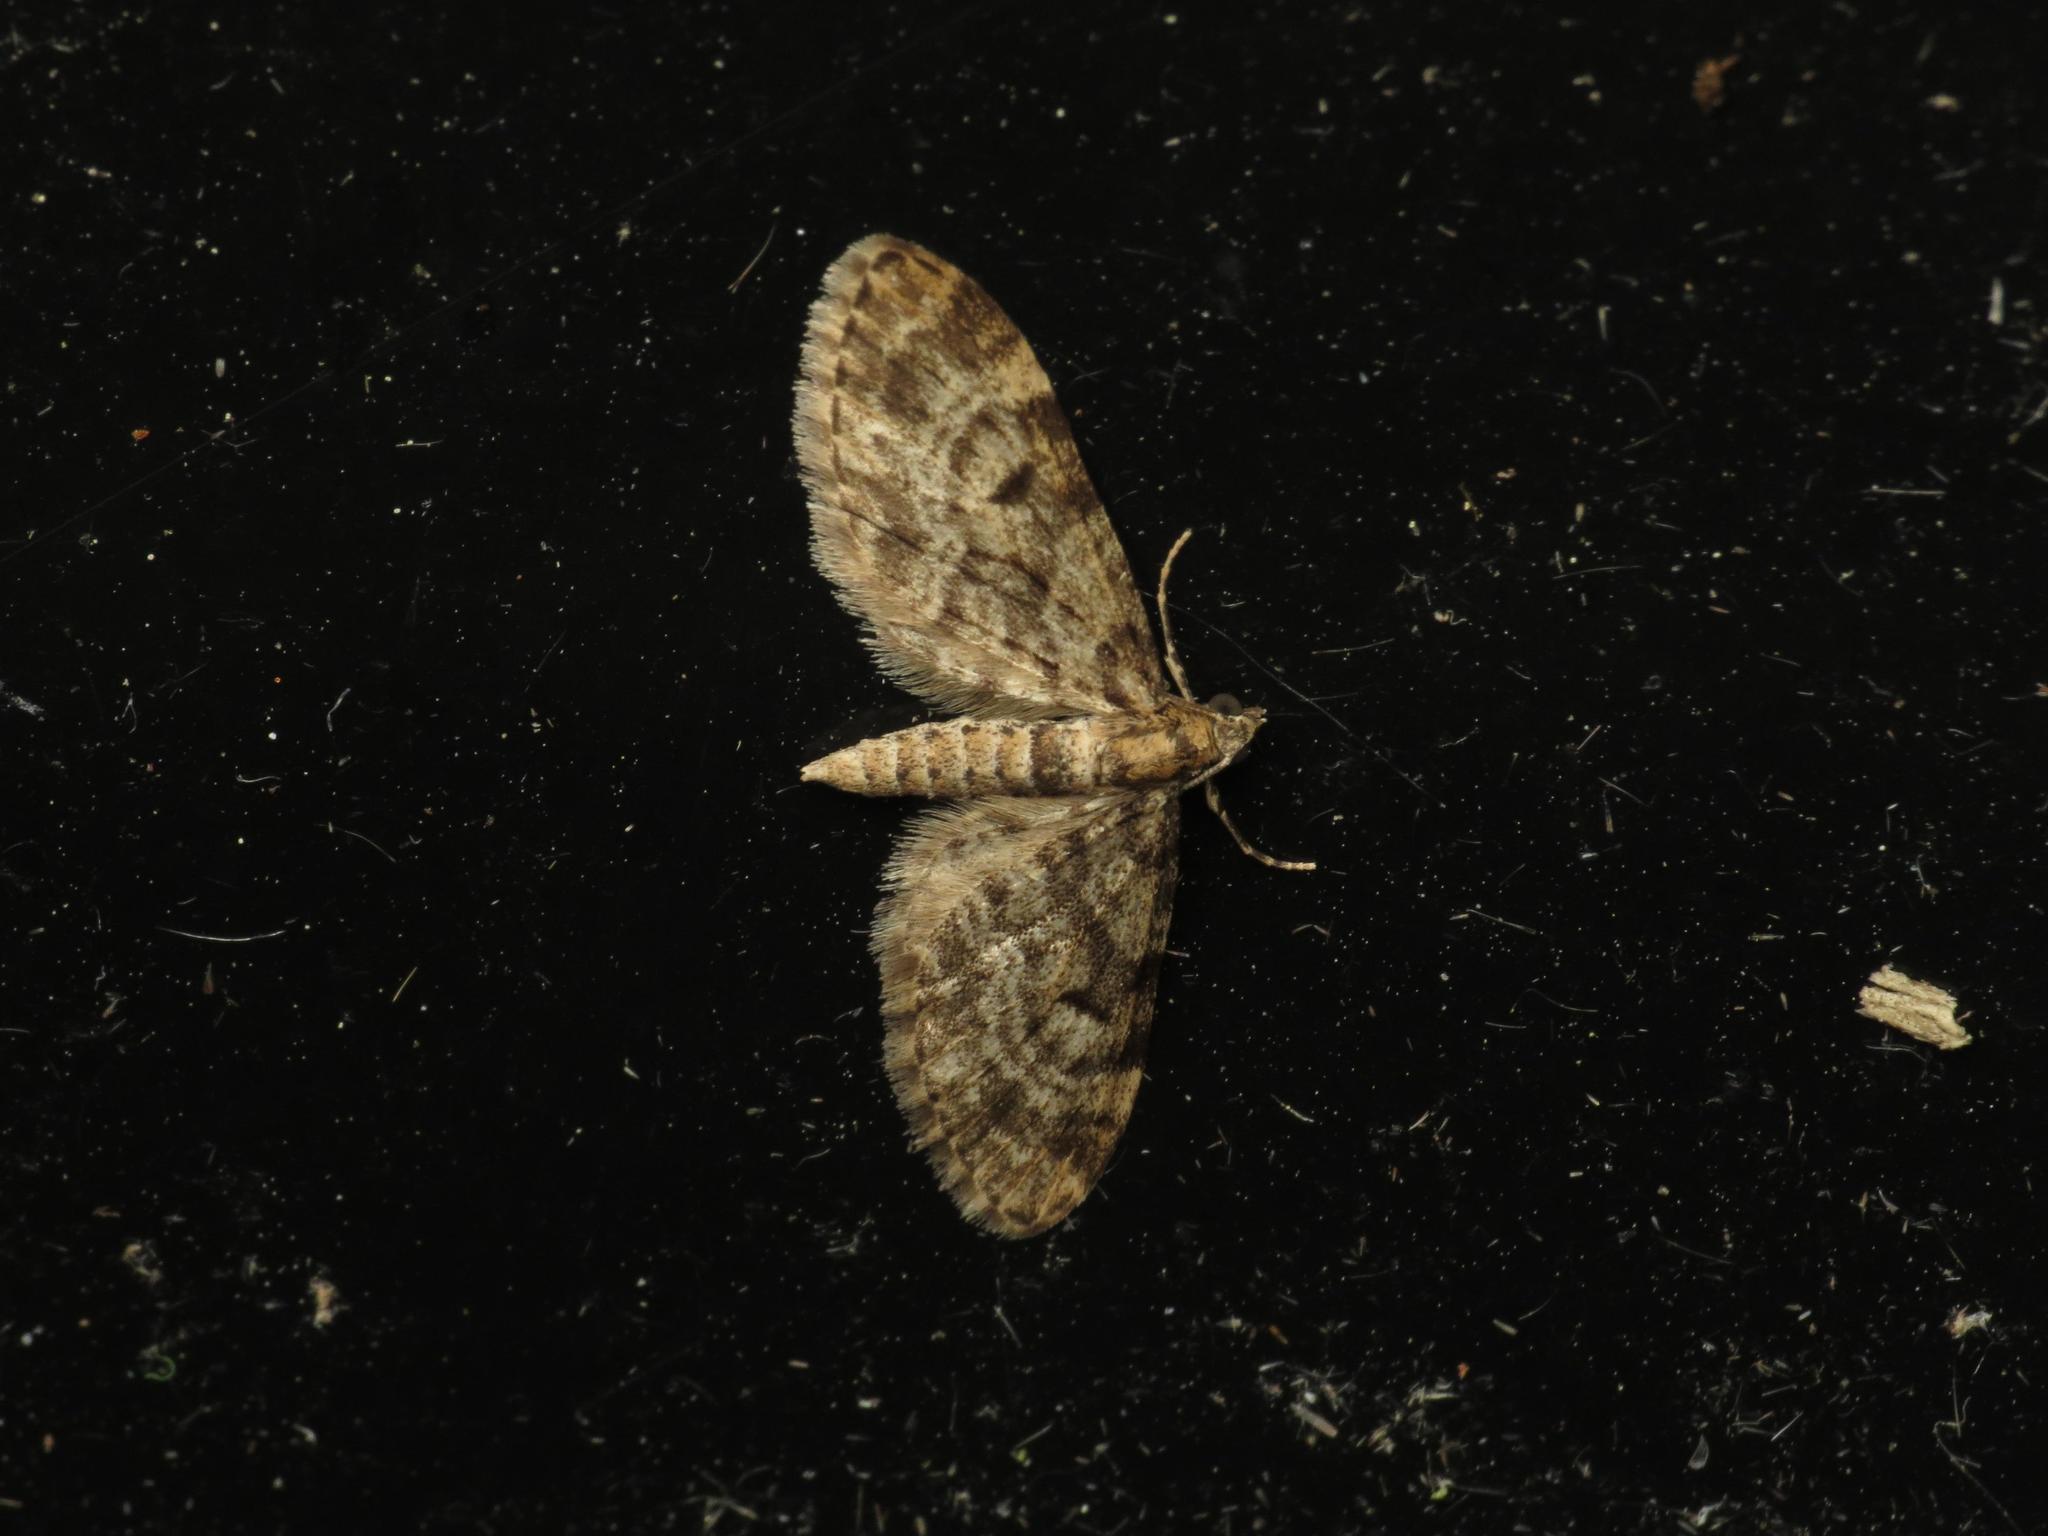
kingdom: Animalia
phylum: Arthropoda
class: Insecta
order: Lepidoptera
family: Geometridae
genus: Eupithecia
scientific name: Eupithecia tantillaria
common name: Dwarf pug
